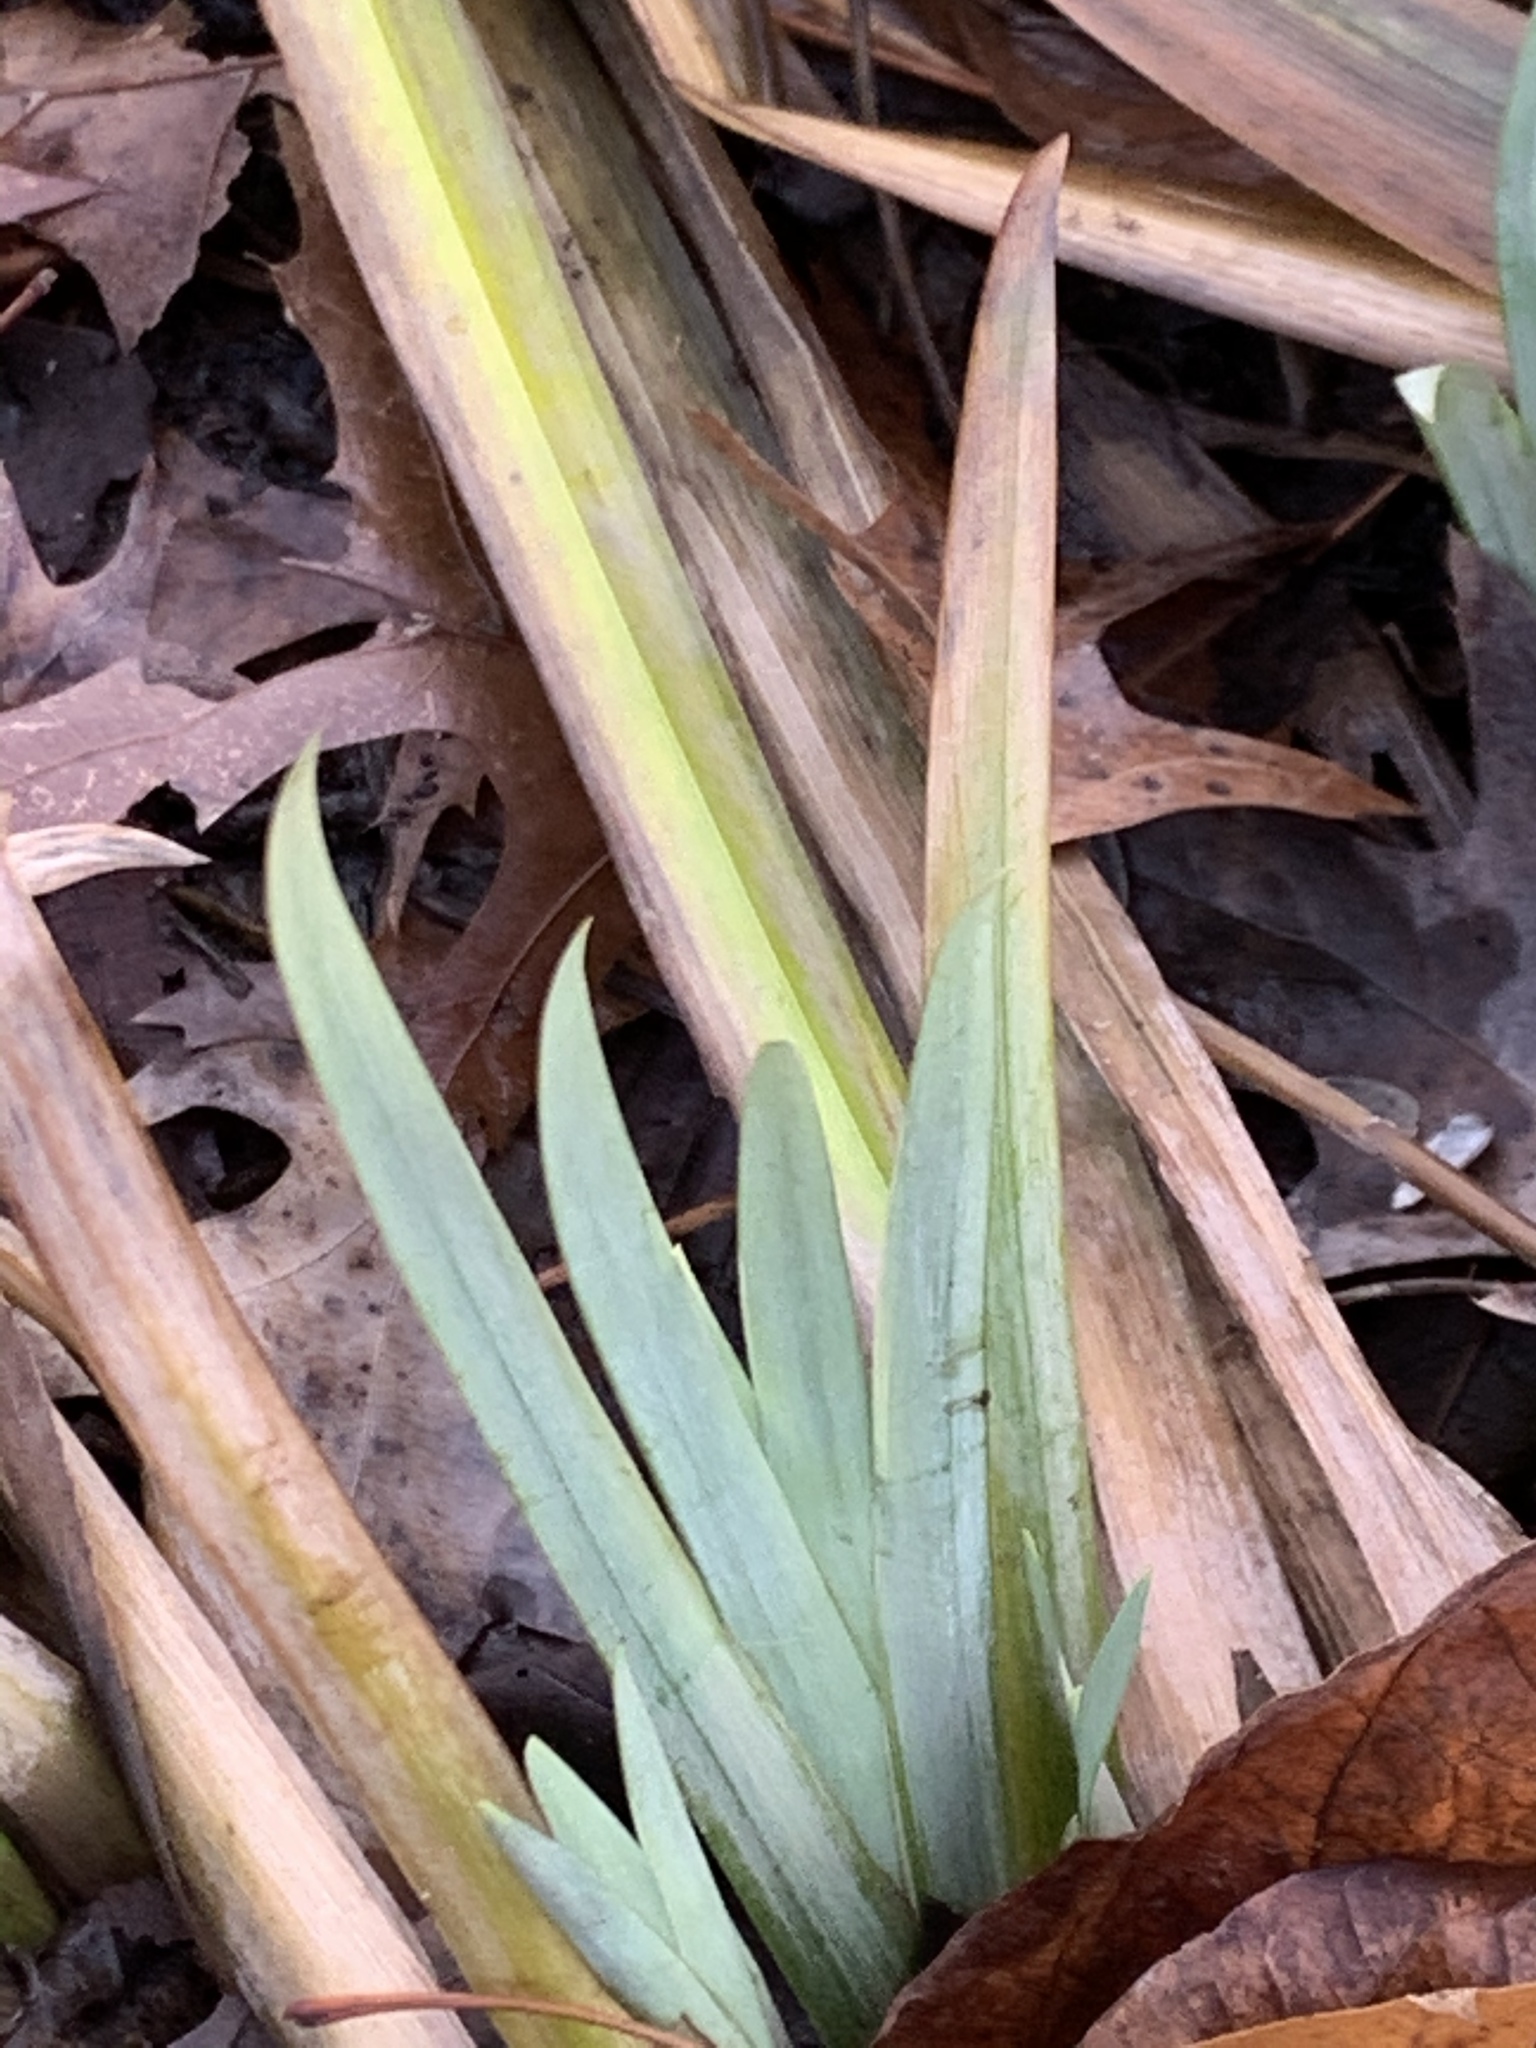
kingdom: Plantae
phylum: Tracheophyta
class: Liliopsida
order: Asparagales
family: Iridaceae
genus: Iris
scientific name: Iris pseudacorus
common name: Yellow flag
